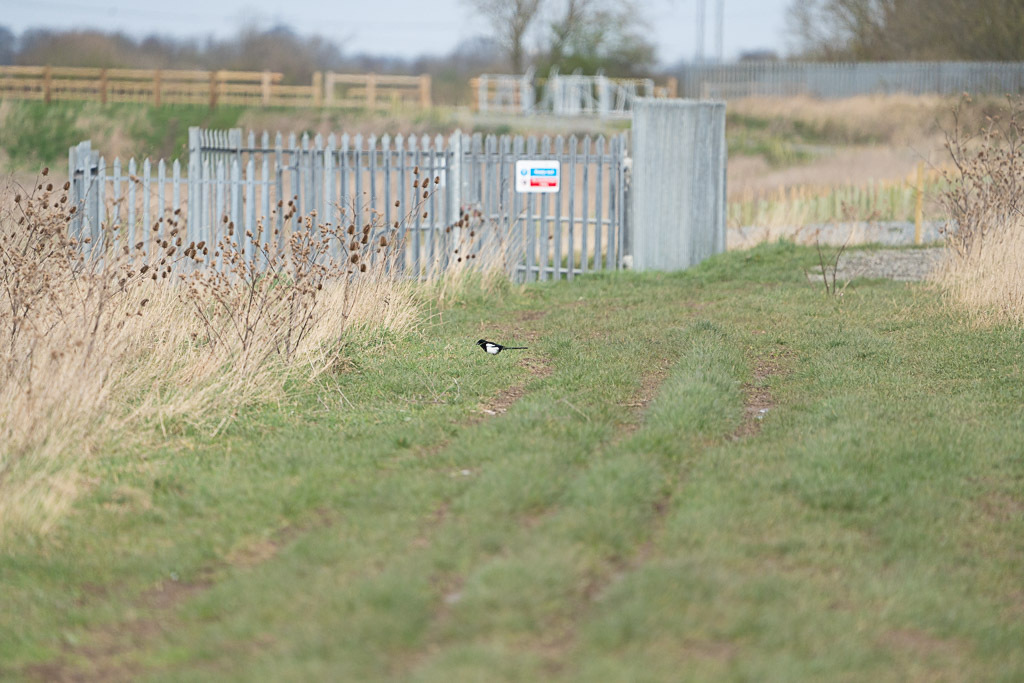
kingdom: Animalia
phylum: Chordata
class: Aves
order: Passeriformes
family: Corvidae
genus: Pica
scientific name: Pica pica
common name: Eurasian magpie
